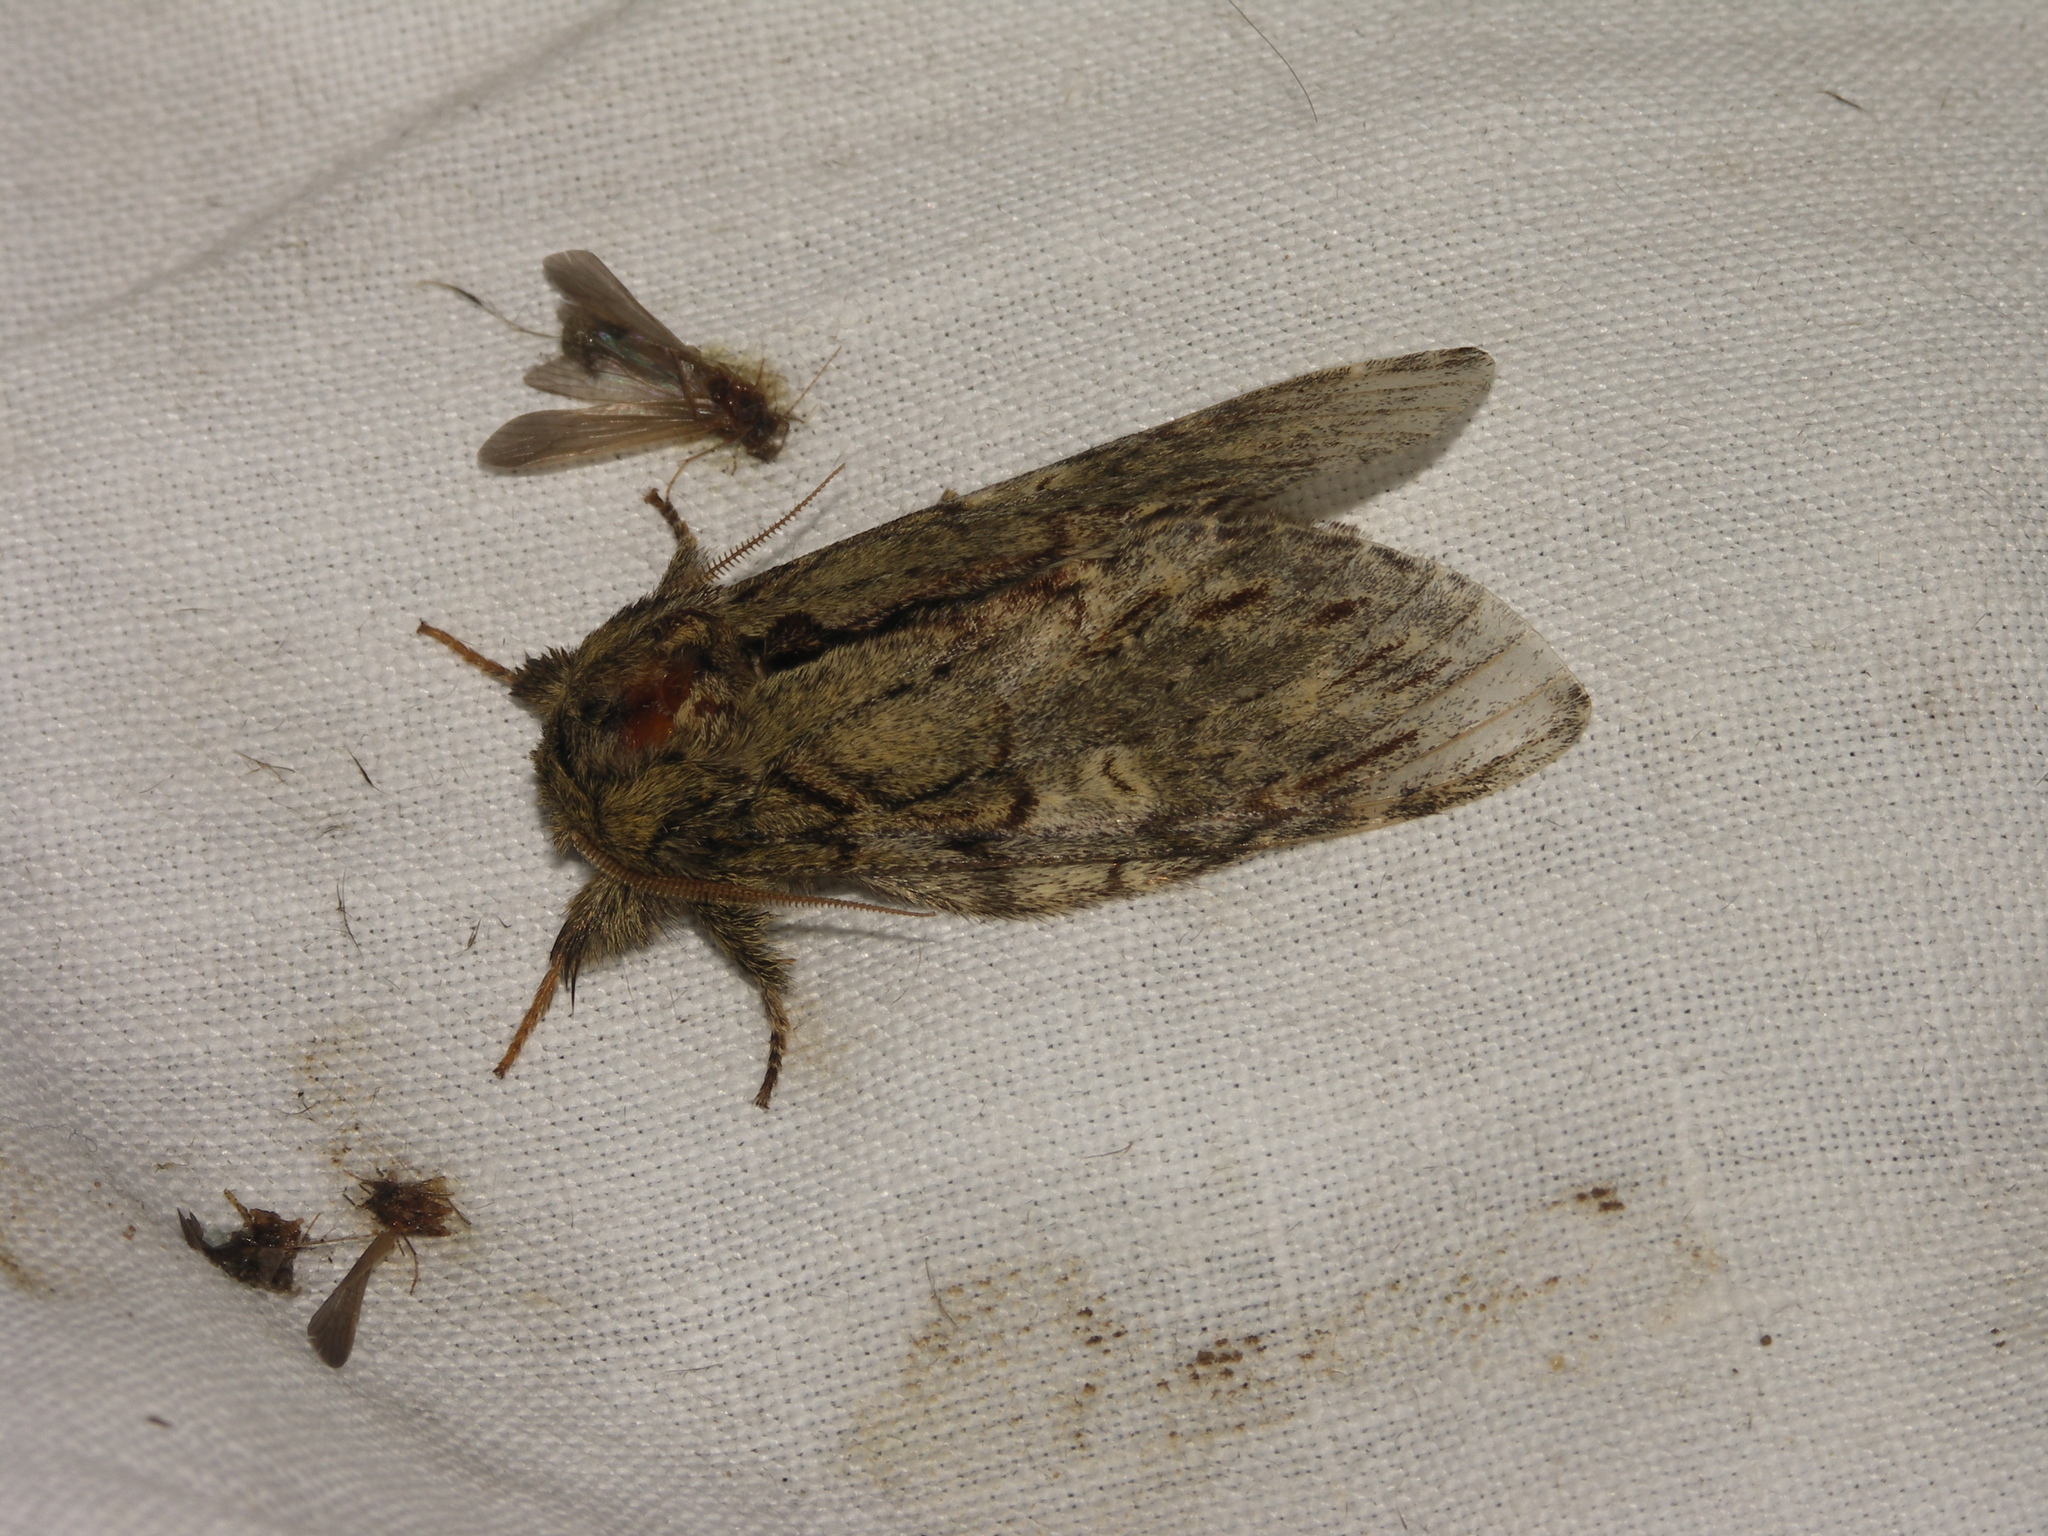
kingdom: Animalia
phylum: Arthropoda
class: Insecta
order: Lepidoptera
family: Notodontidae
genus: Peridea
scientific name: Peridea anceps
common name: Great prominent
